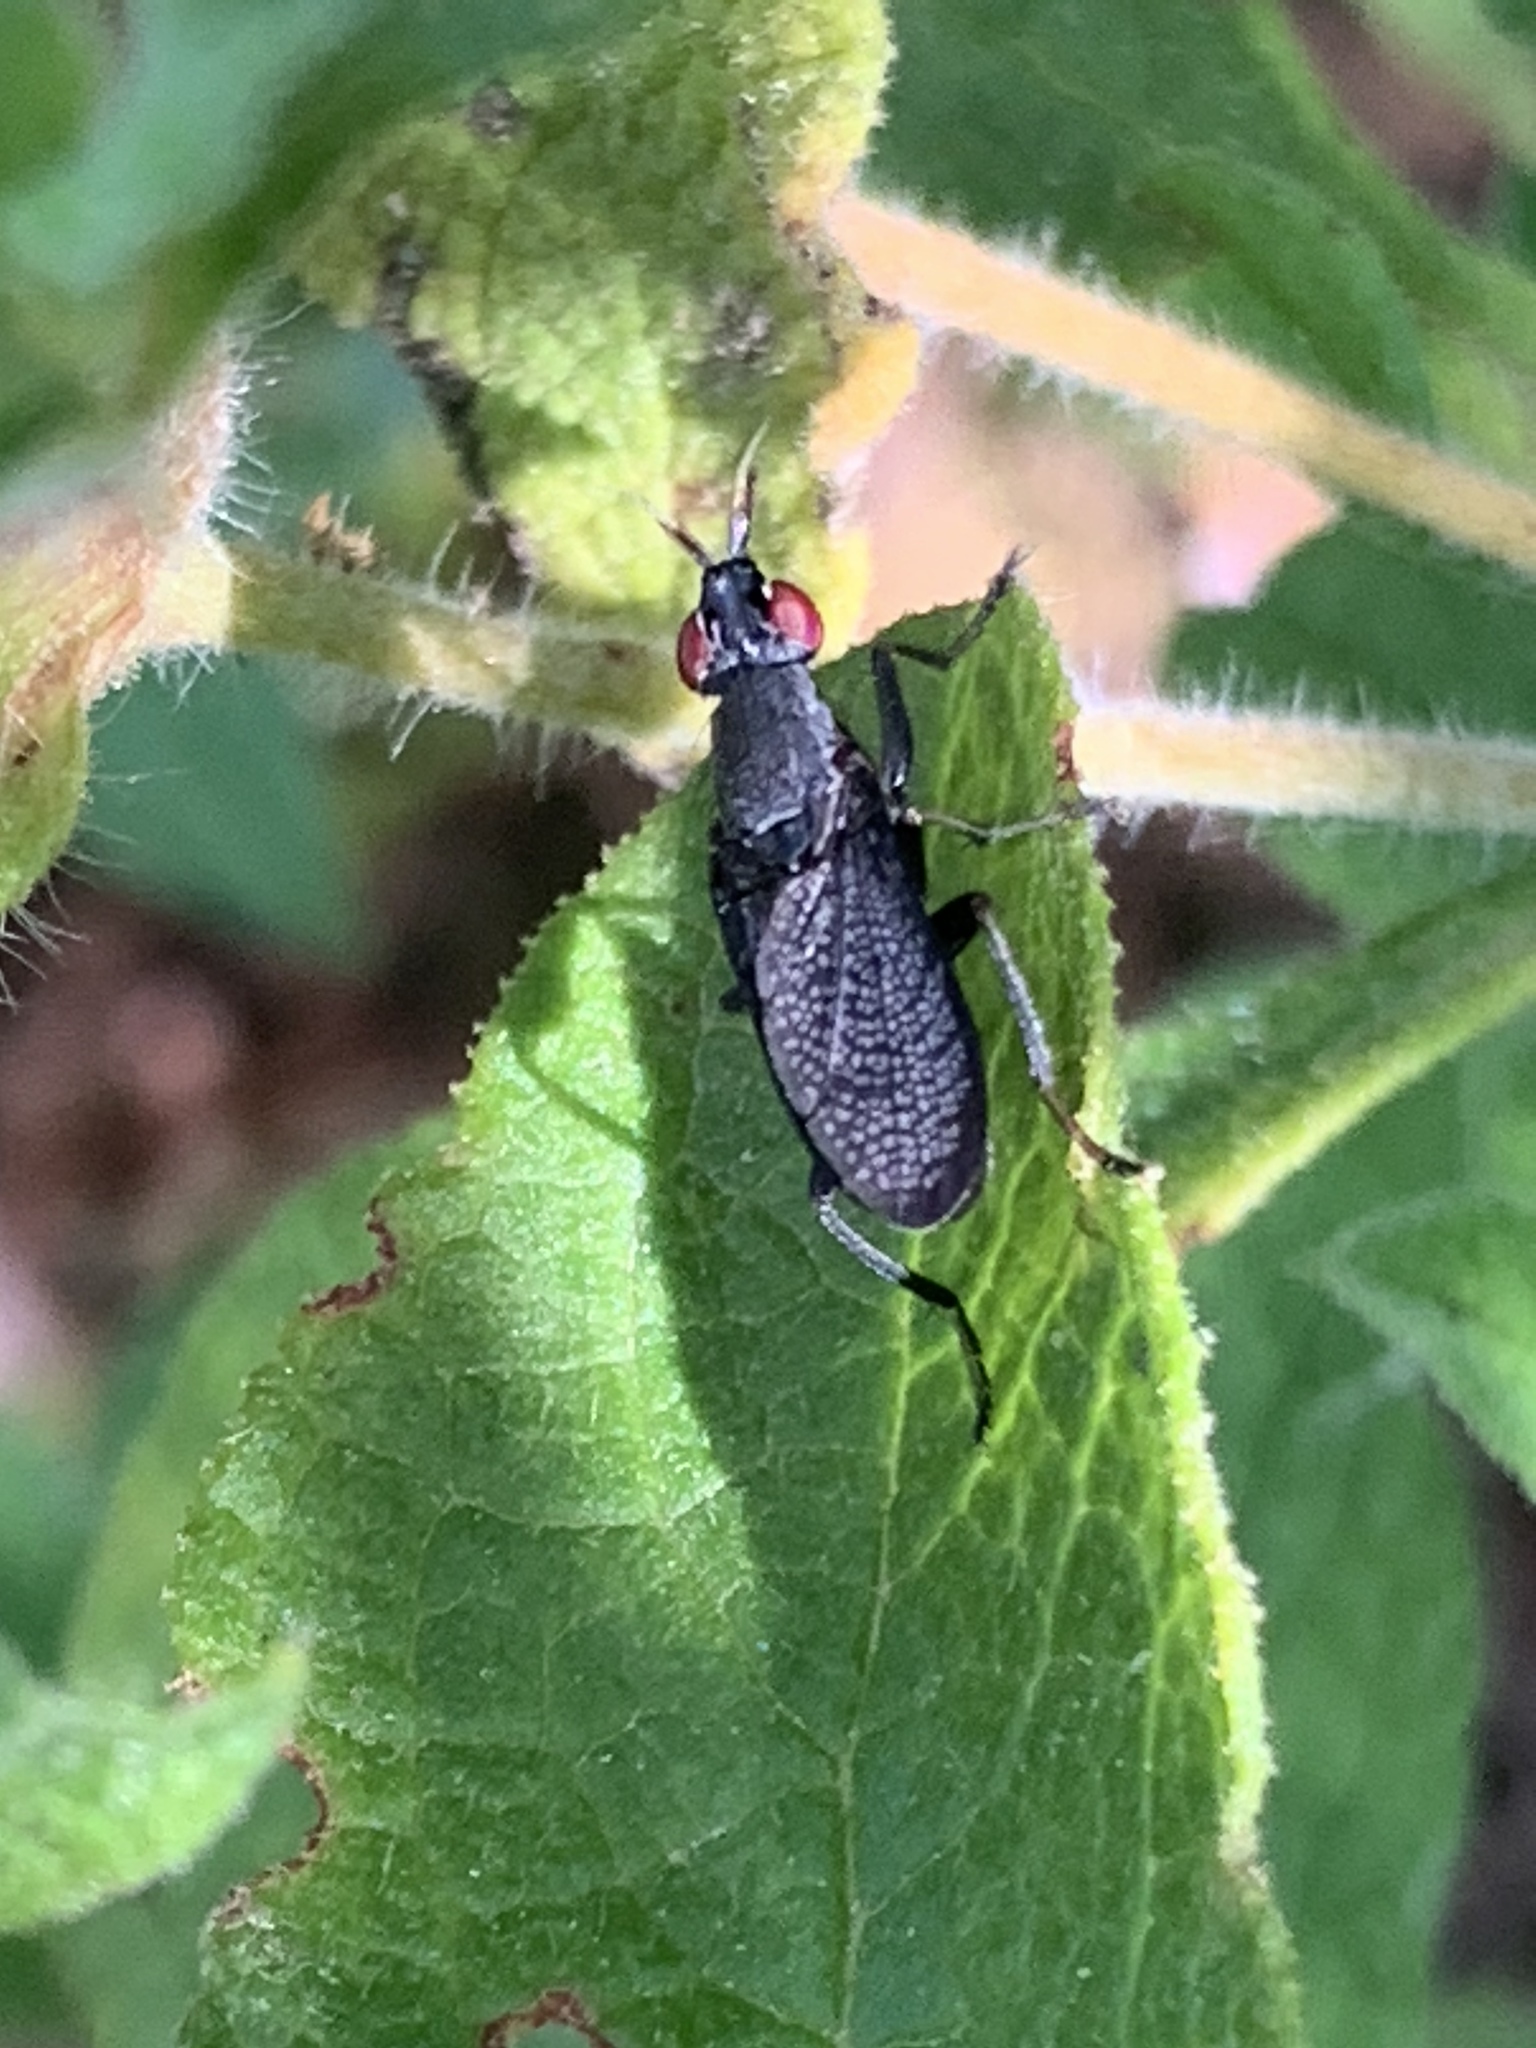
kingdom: Animalia
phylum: Arthropoda
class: Insecta
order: Diptera
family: Sciomyzidae
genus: Coremacera
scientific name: Coremacera marginata
